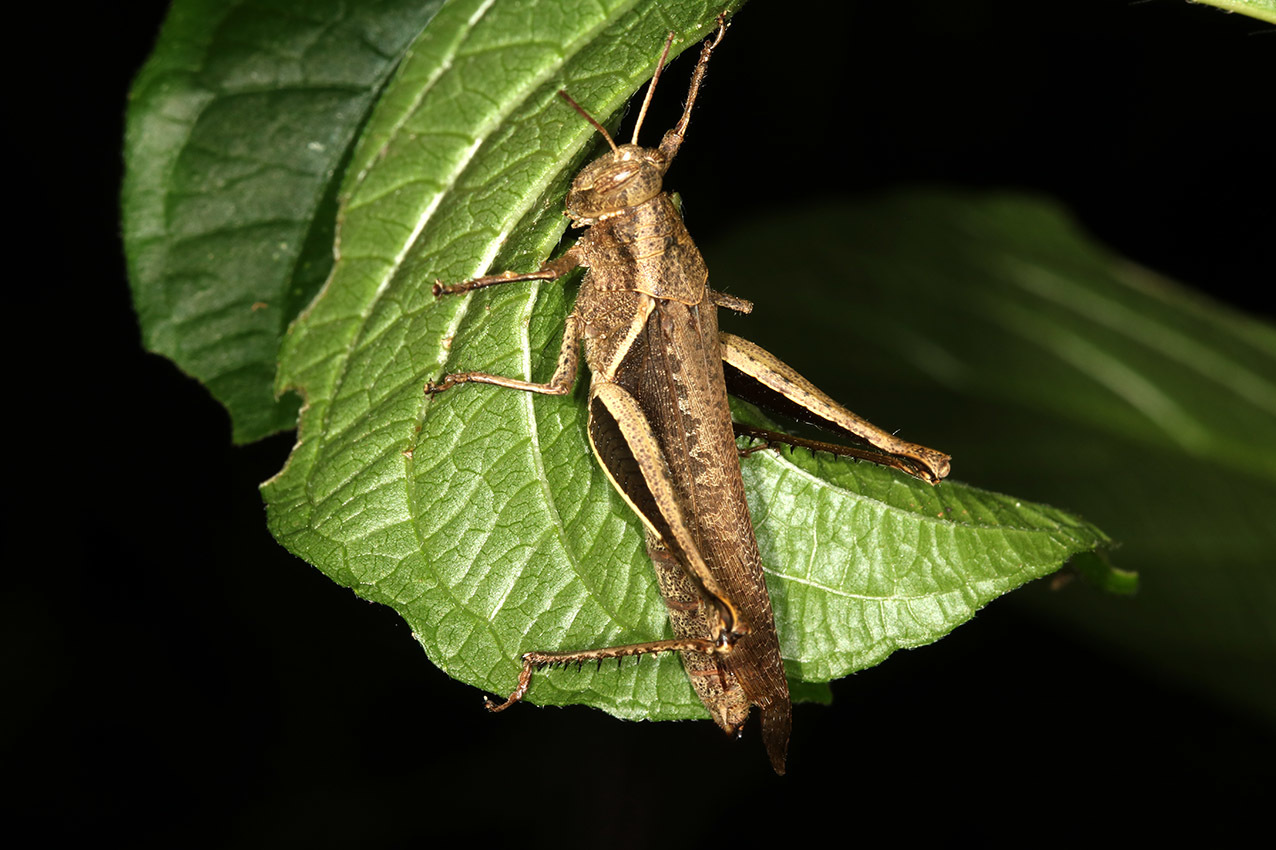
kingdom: Animalia
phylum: Arthropoda
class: Insecta
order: Orthoptera
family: Acrididae
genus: Abracris
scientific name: Abracris flavolineata
